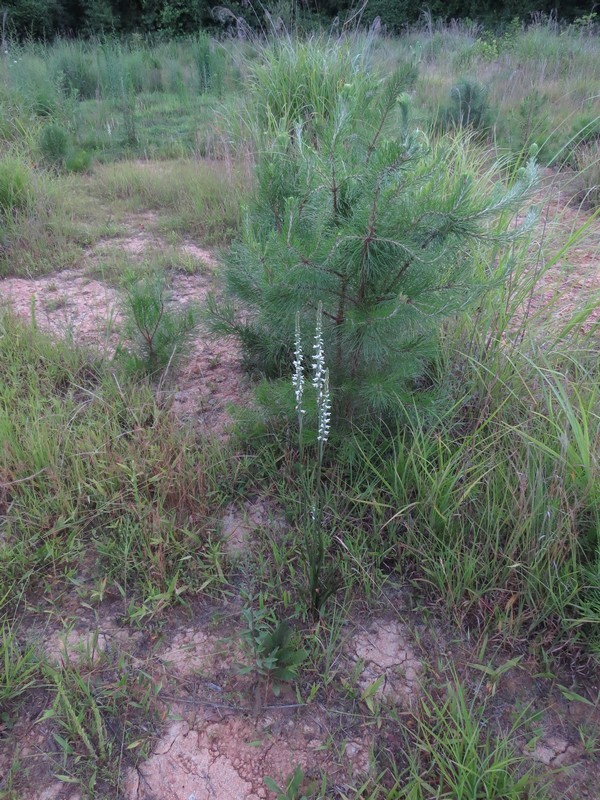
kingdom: Plantae
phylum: Tracheophyta
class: Liliopsida
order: Asparagales
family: Orchidaceae
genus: Spiranthes
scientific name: Spiranthes vernalis
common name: Spring ladies'-tresses
